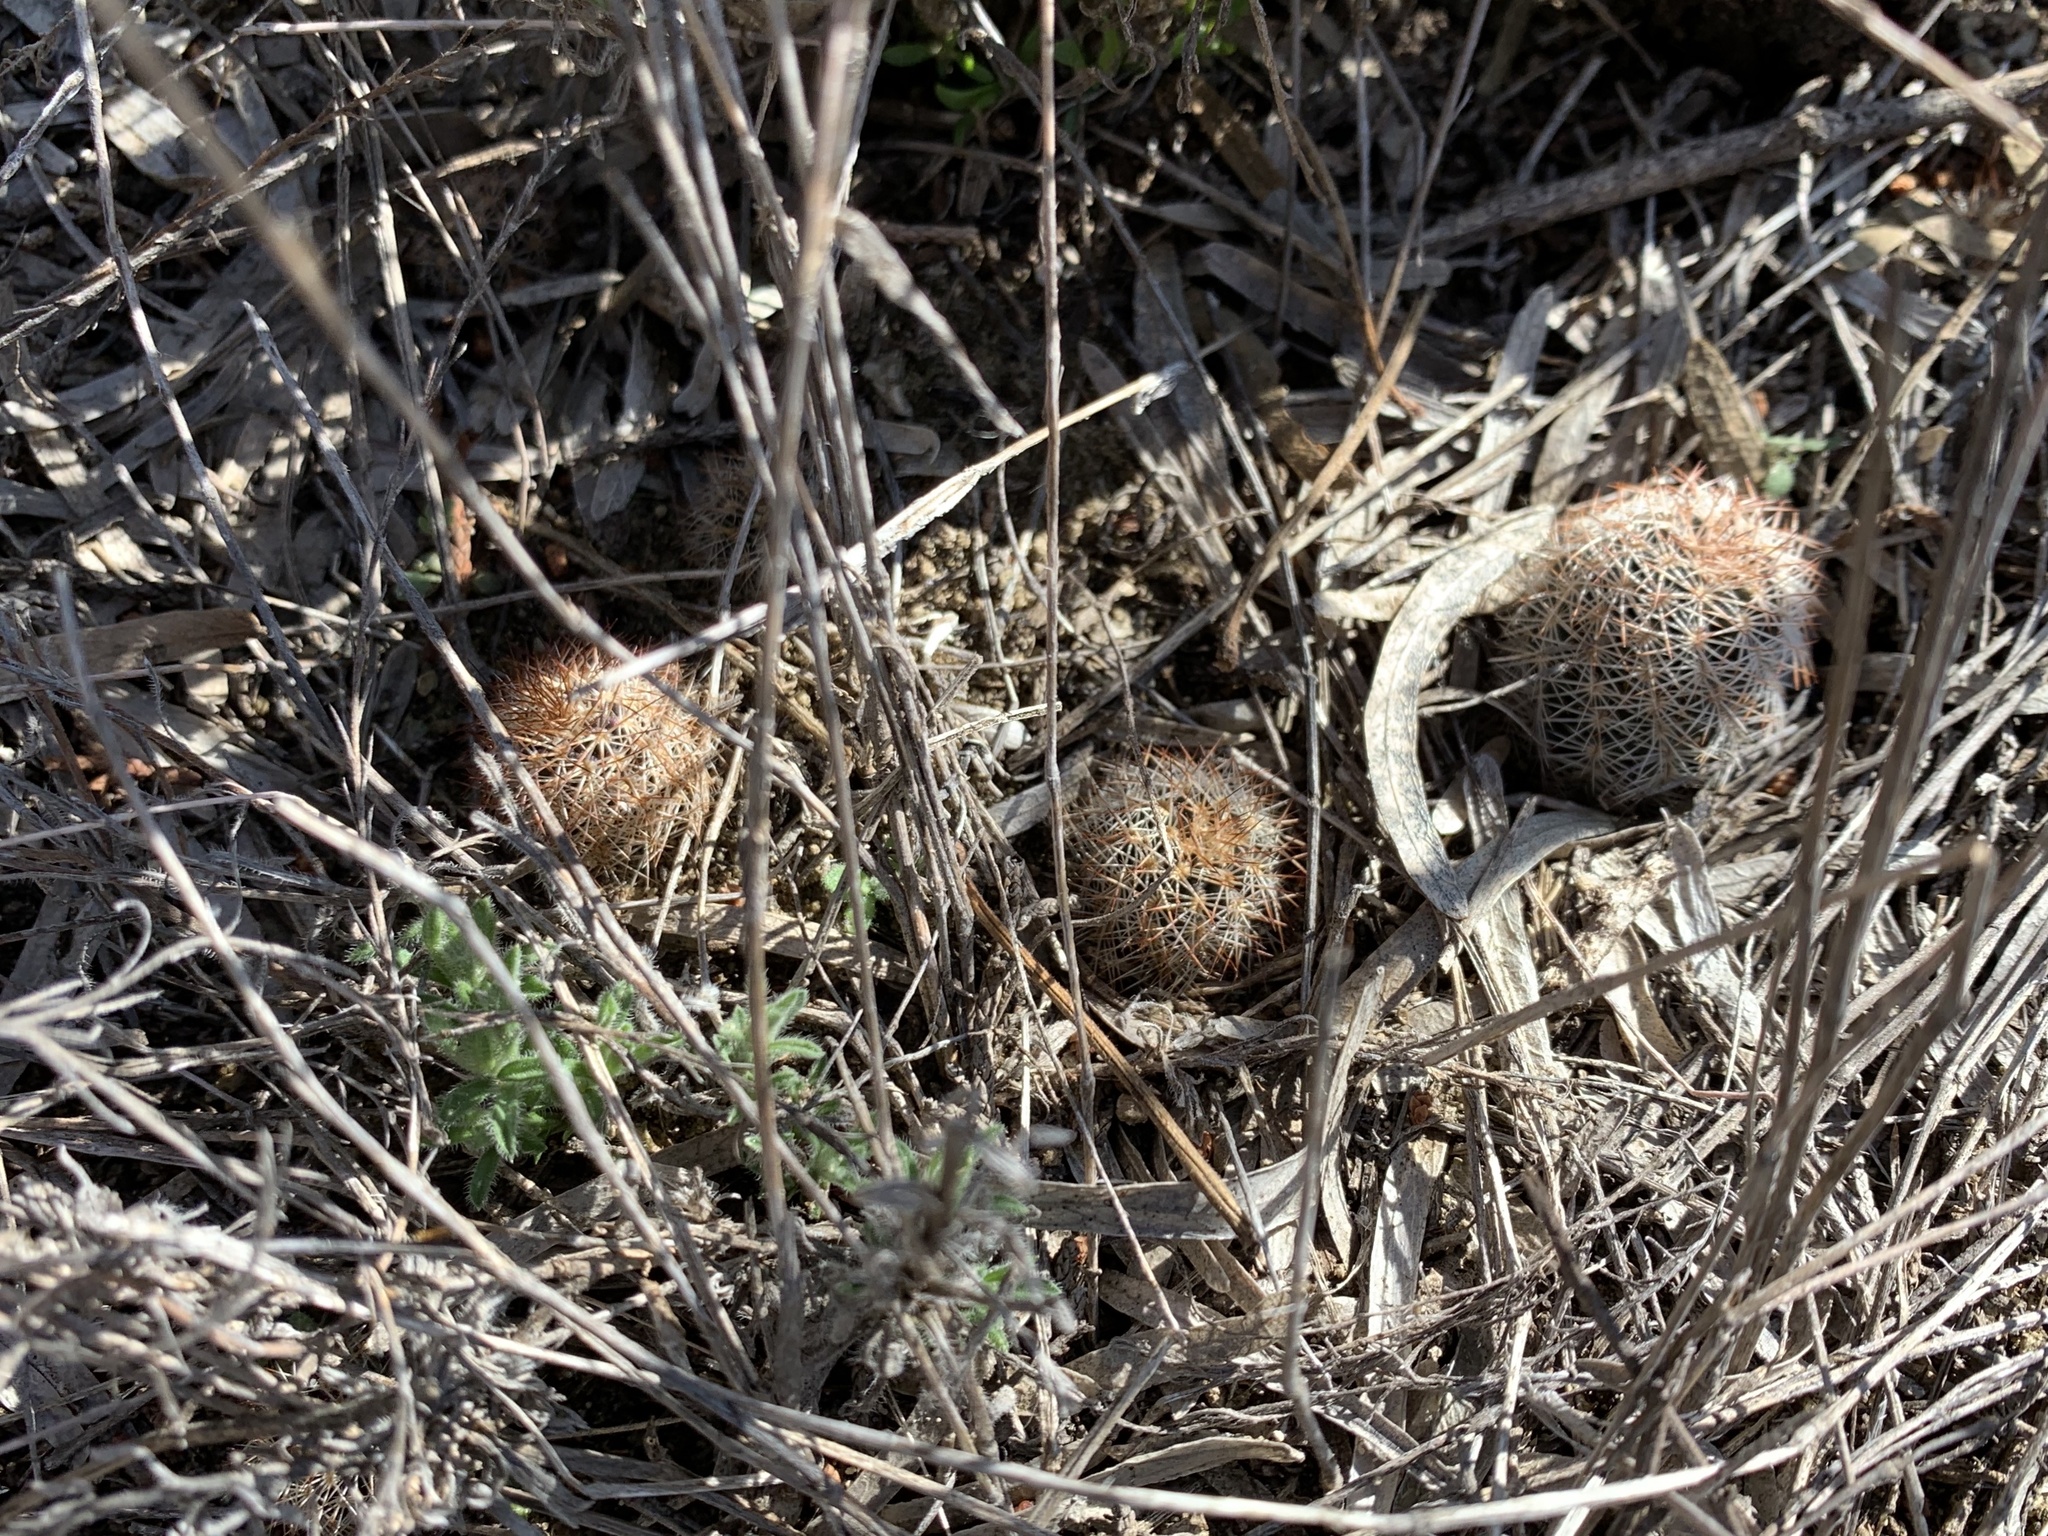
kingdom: Plantae
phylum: Tracheophyta
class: Magnoliopsida
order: Caryophyllales
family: Cactaceae
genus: Echinocereus
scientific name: Echinocereus reichenbachii
